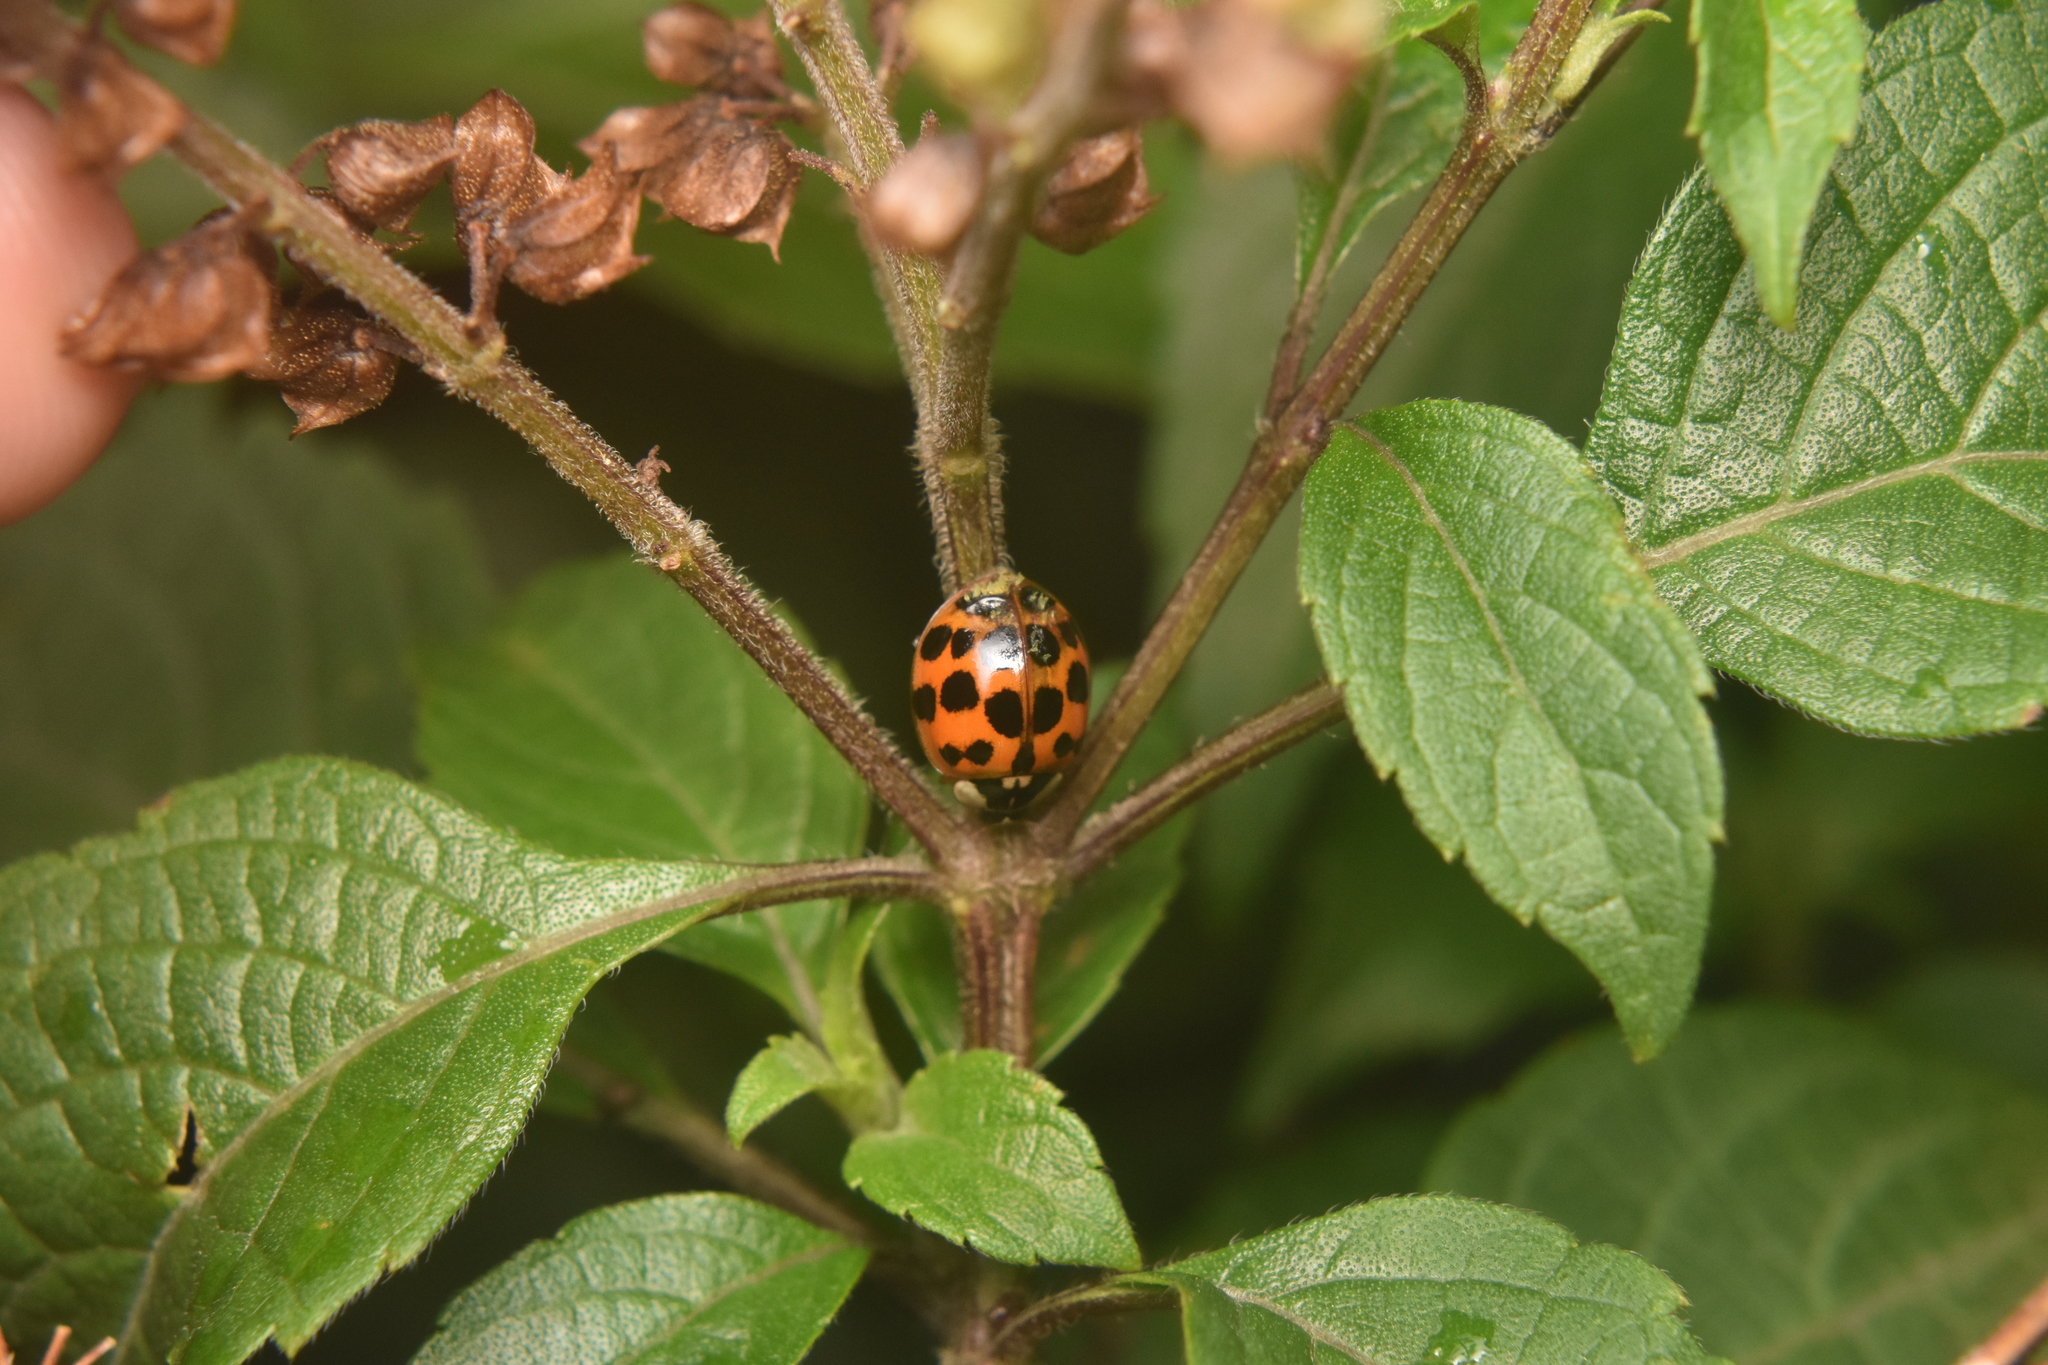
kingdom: Animalia
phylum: Arthropoda
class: Insecta
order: Coleoptera
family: Coccinellidae
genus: Harmonia
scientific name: Harmonia axyridis
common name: Harlequin ladybird
